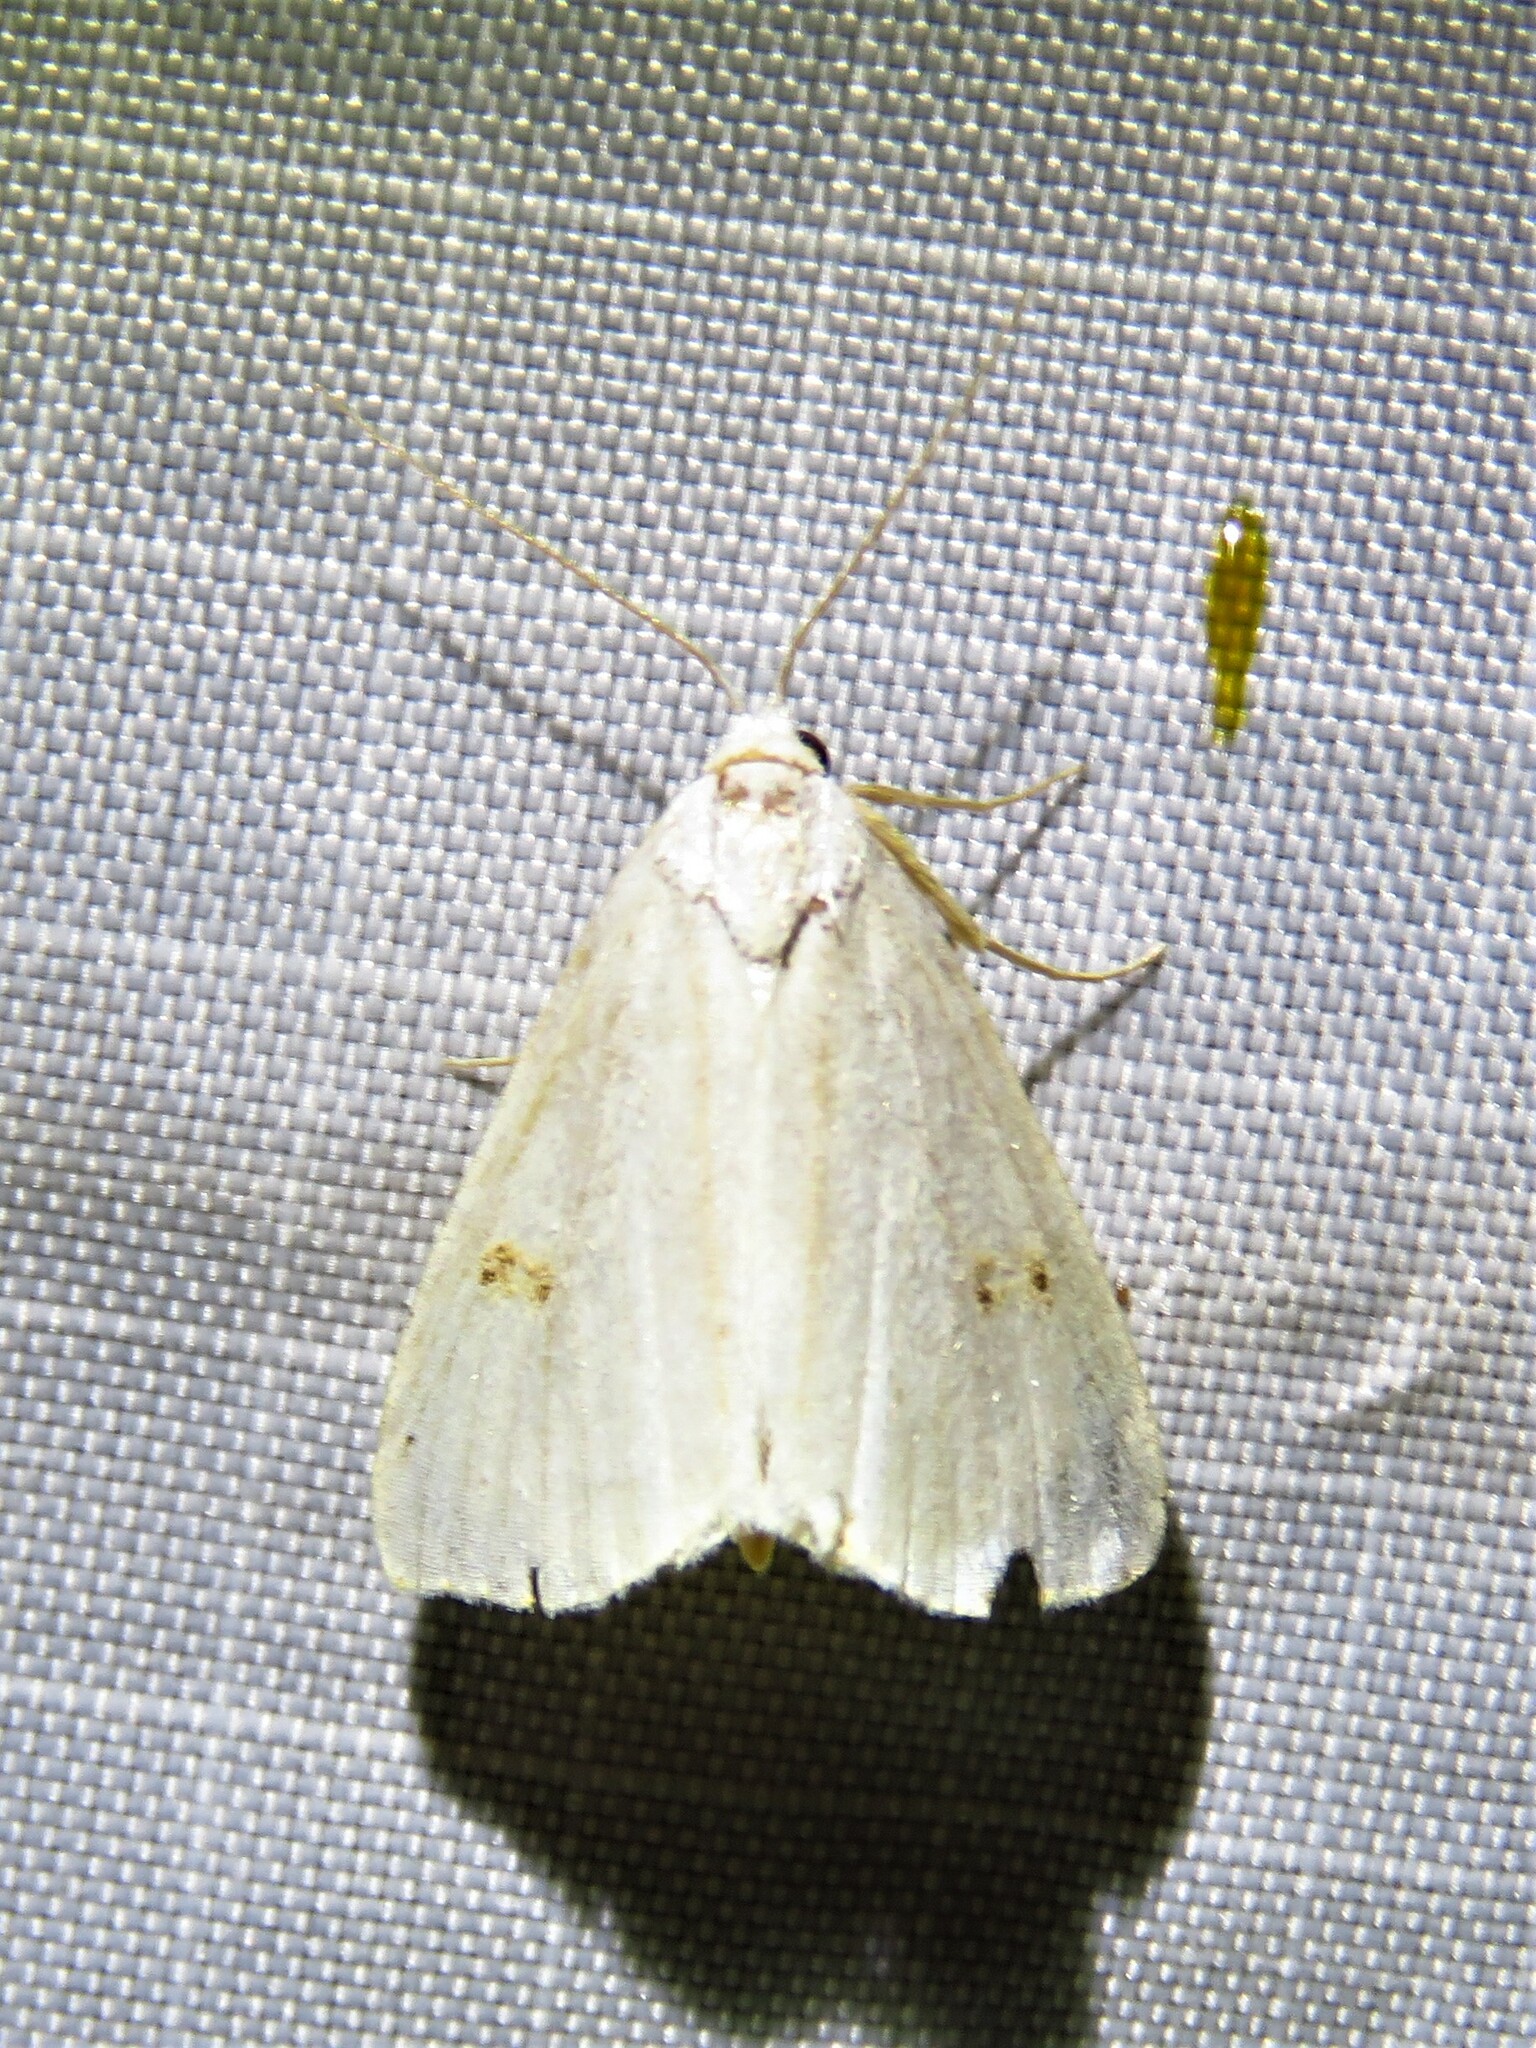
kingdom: Animalia
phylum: Arthropoda
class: Insecta
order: Lepidoptera
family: Erebidae
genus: Rivula
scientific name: Rivula sericealis
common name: Straw dot
